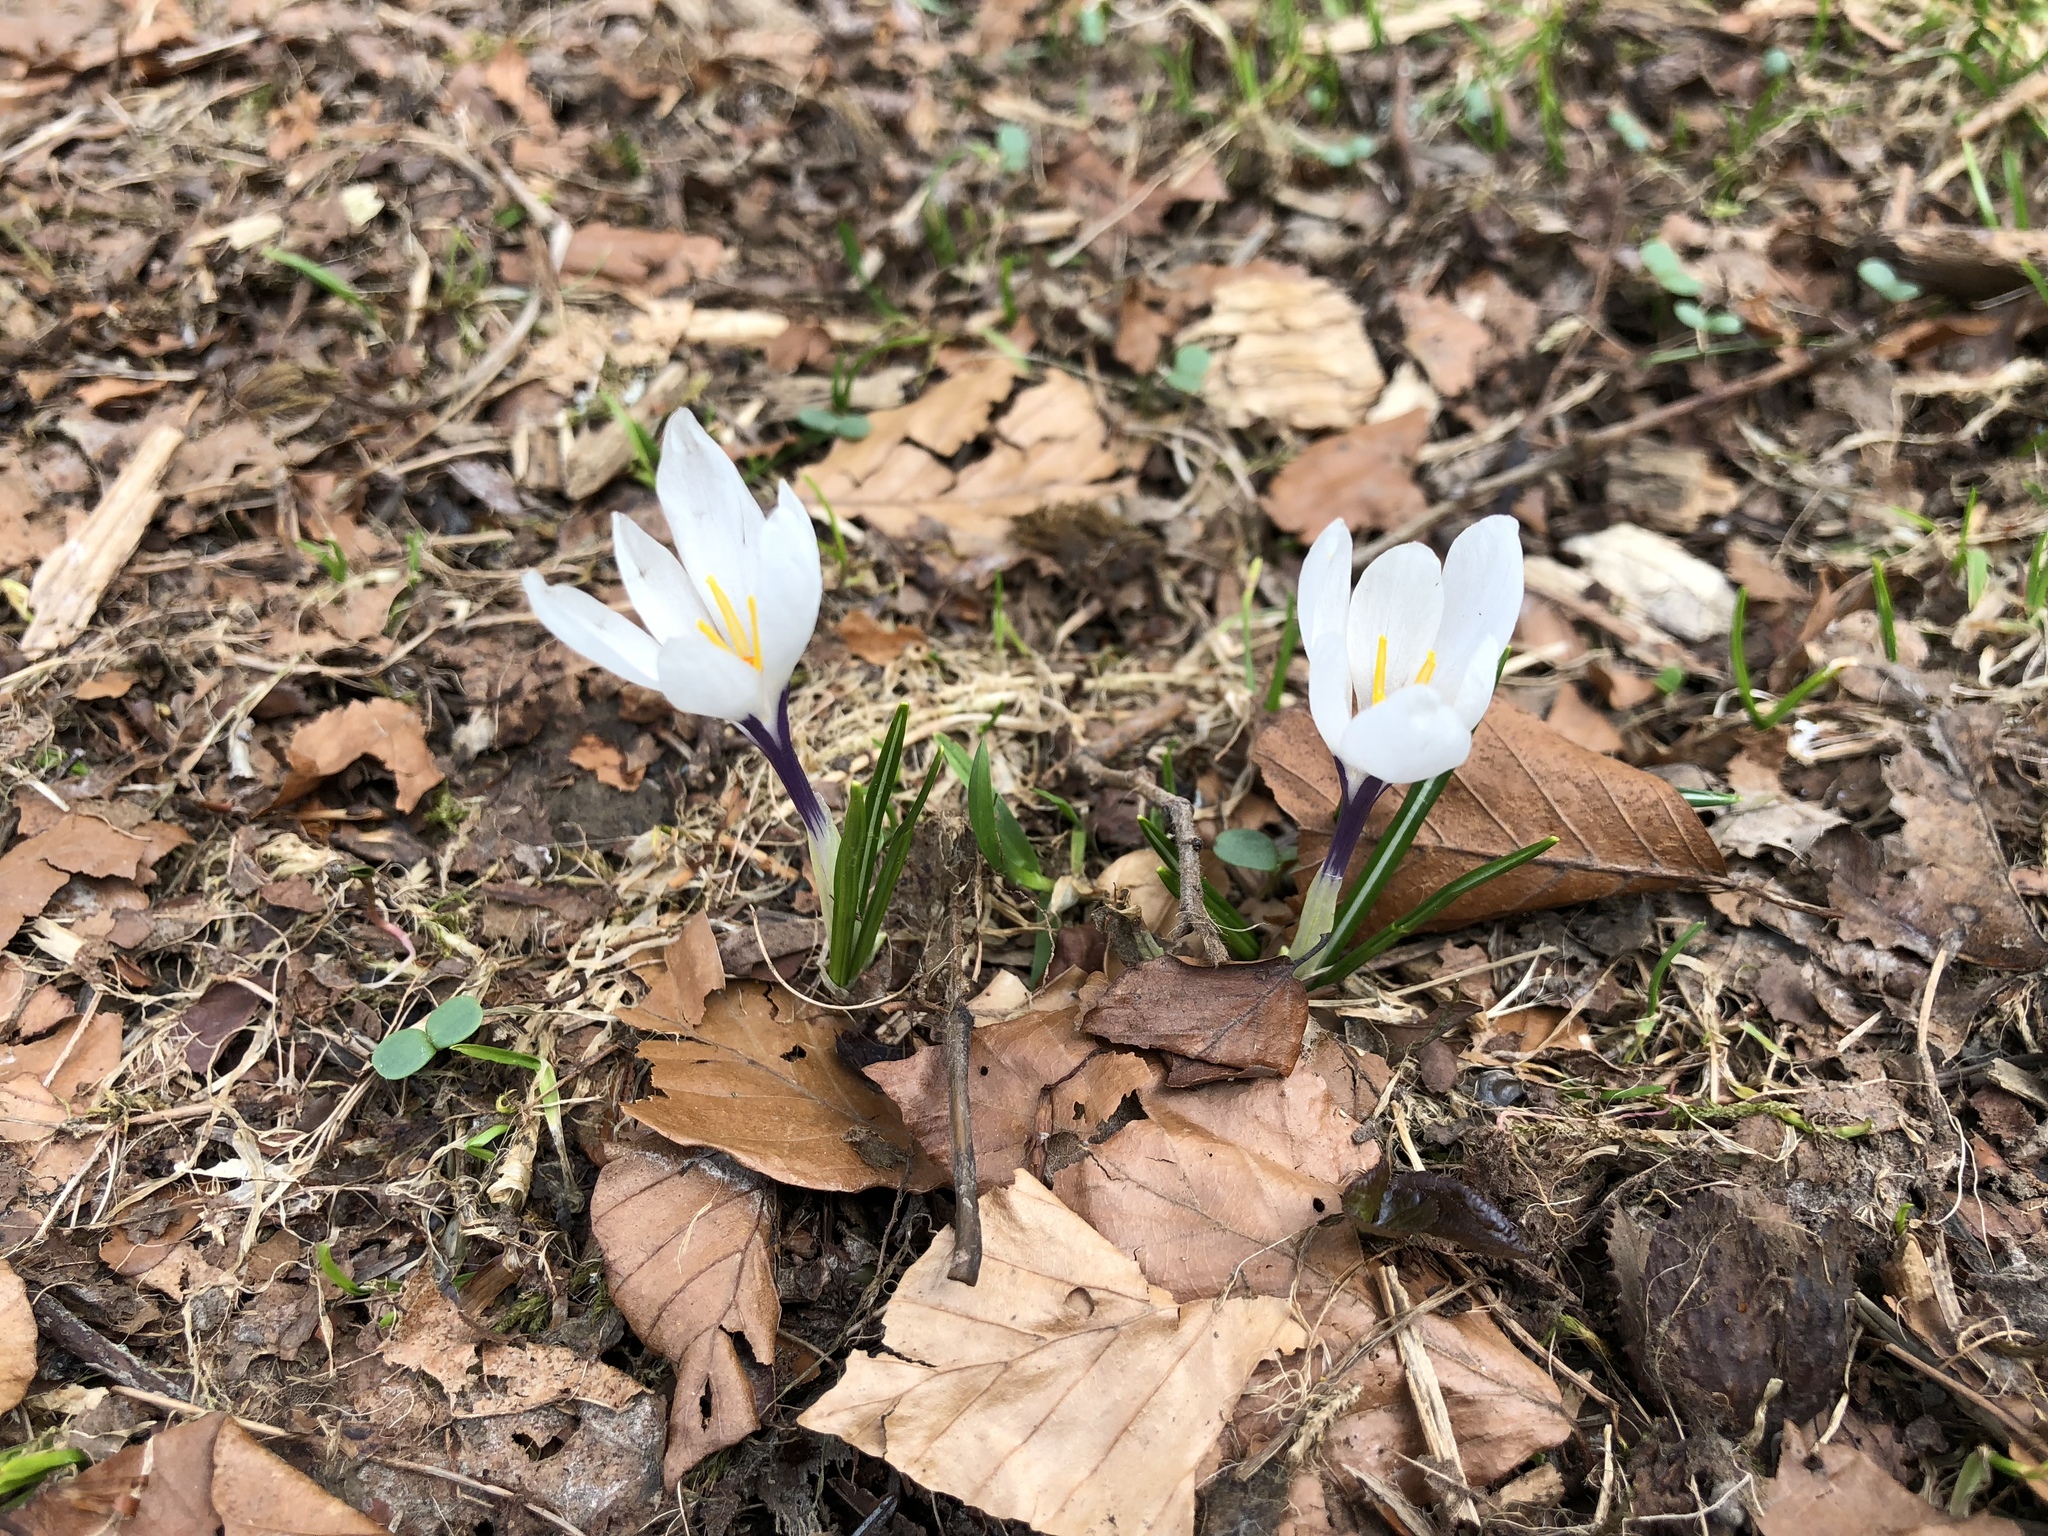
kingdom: Plantae
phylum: Tracheophyta
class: Liliopsida
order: Asparagales
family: Iridaceae
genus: Crocus
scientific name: Crocus vernus
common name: Spring crocus
